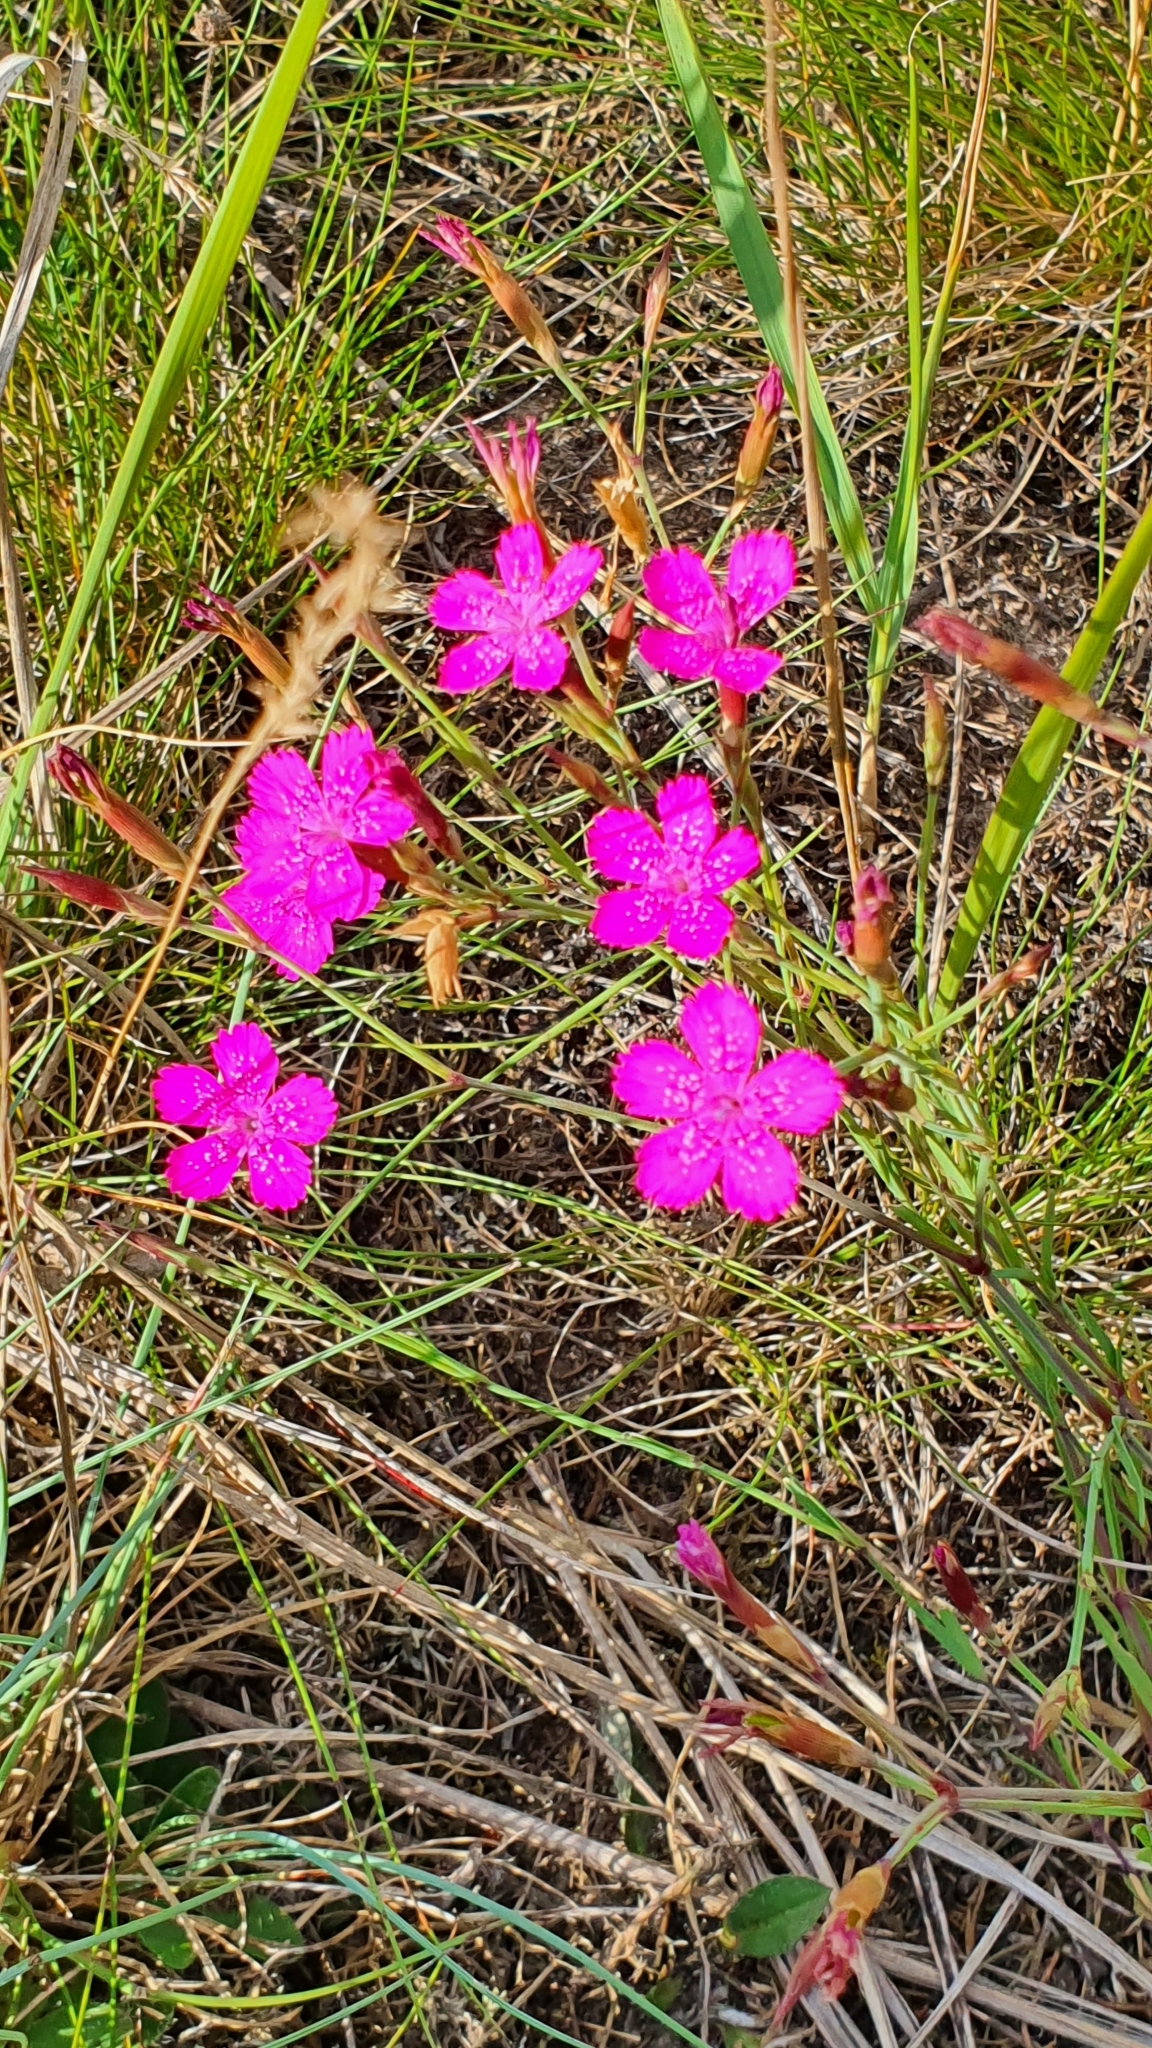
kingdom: Plantae
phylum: Tracheophyta
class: Magnoliopsida
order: Caryophyllales
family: Caryophyllaceae
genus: Dianthus
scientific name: Dianthus deltoides
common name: Maiden pink
